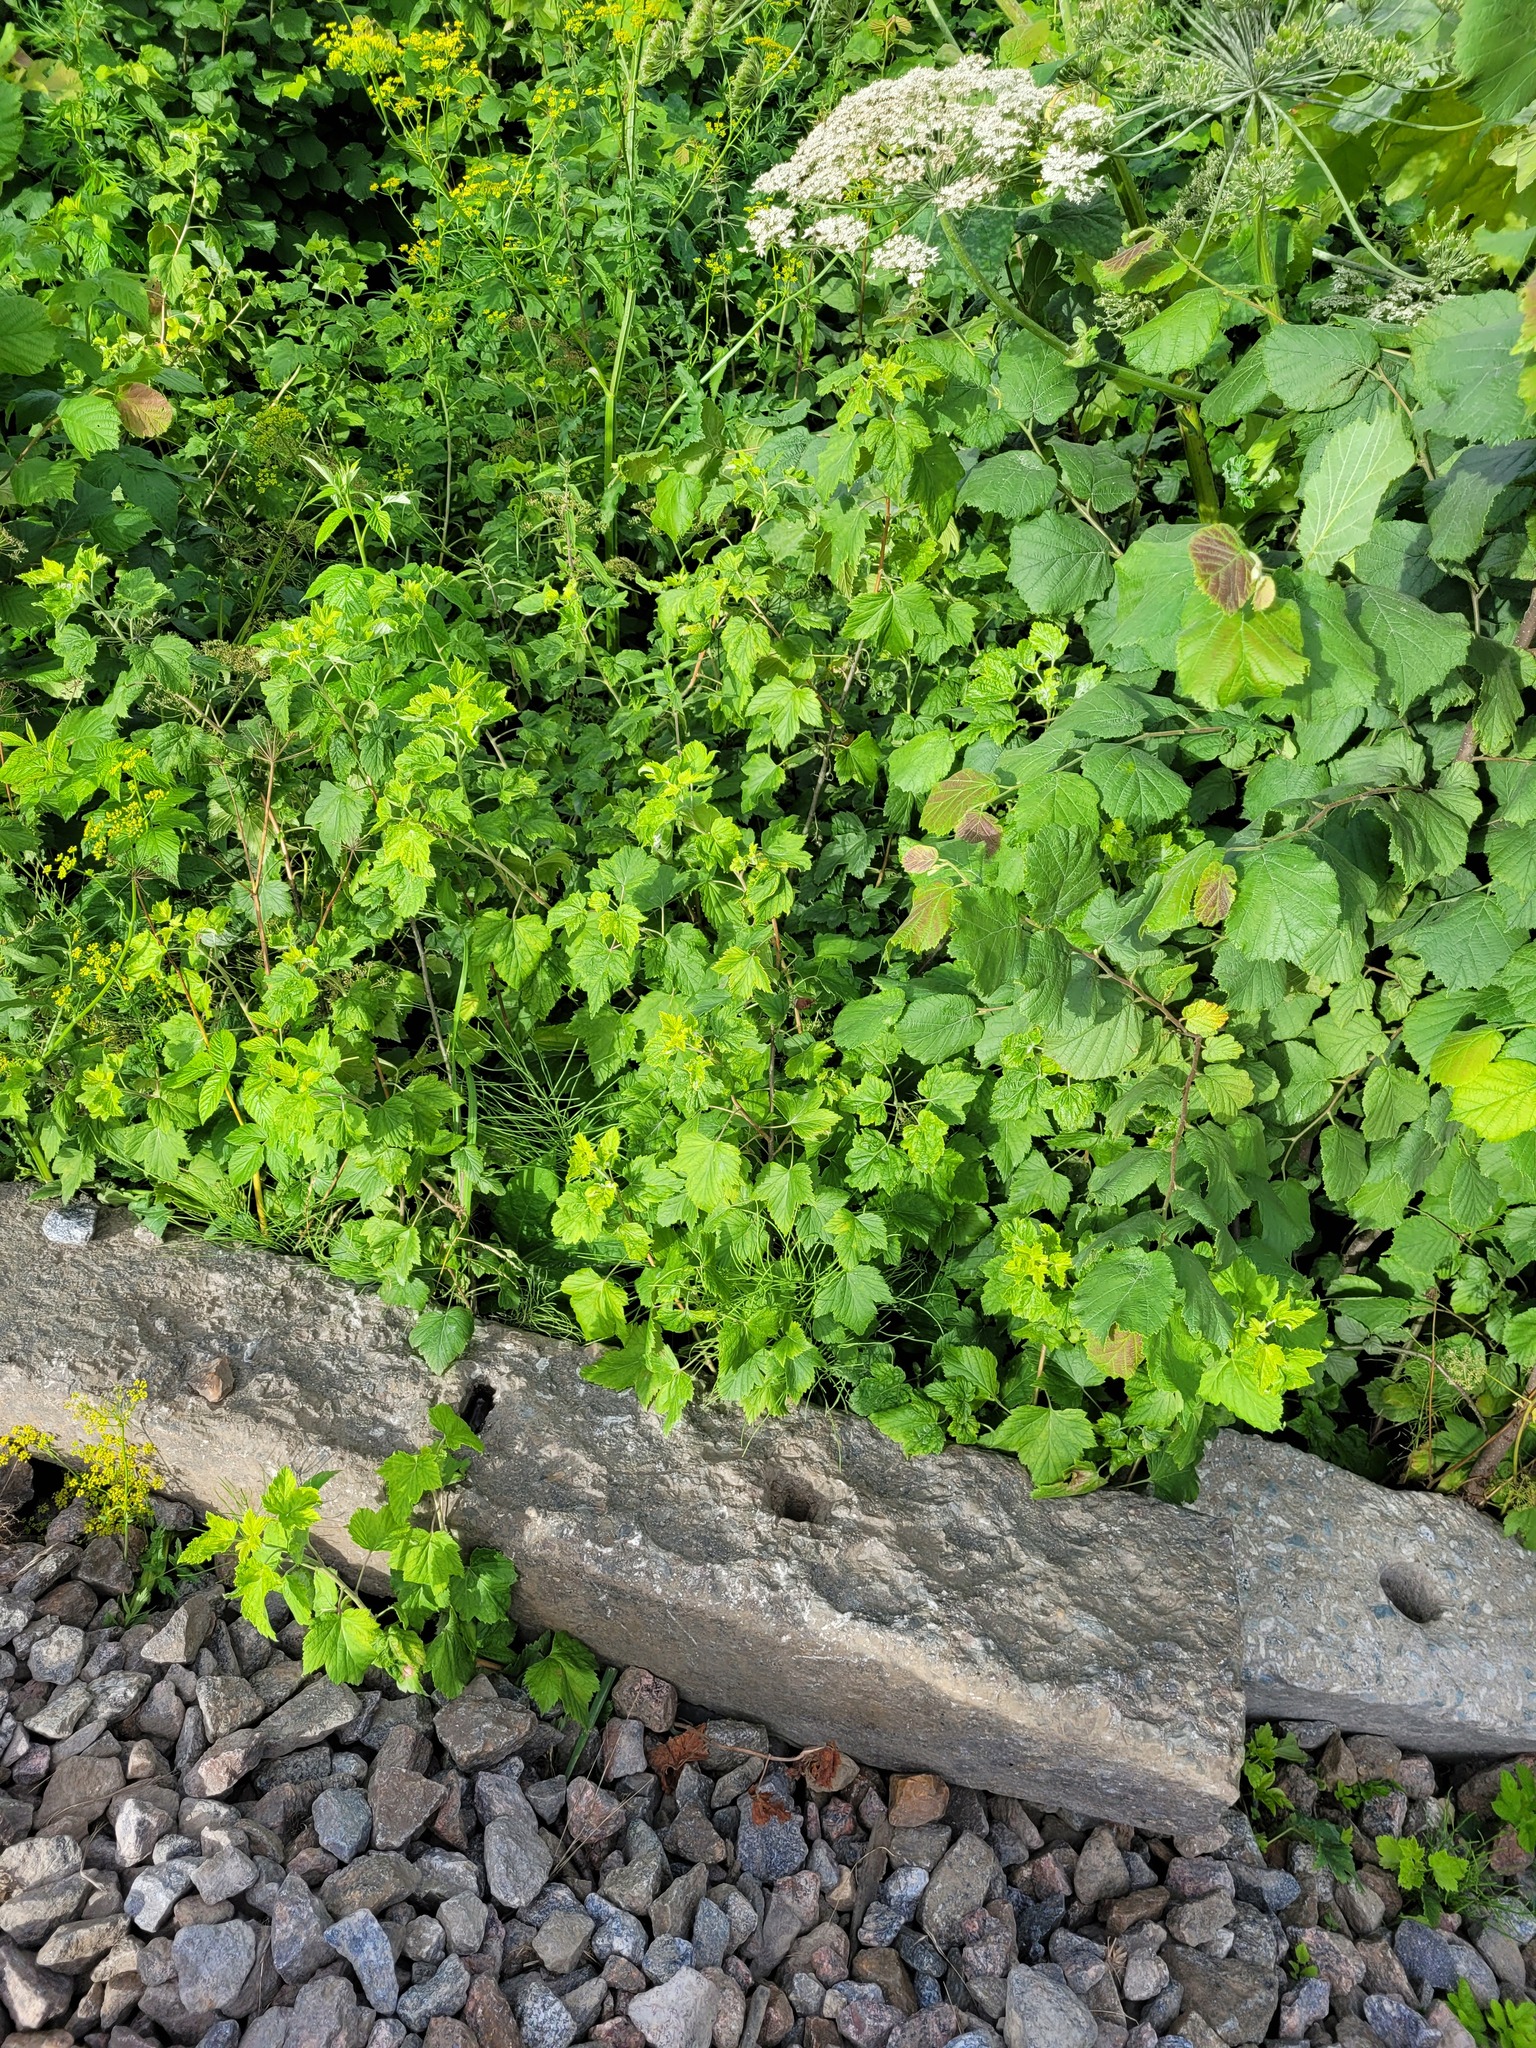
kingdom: Plantae
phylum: Tracheophyta
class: Magnoliopsida
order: Saxifragales
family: Grossulariaceae
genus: Ribes
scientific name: Ribes nigrum
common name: Black currant
